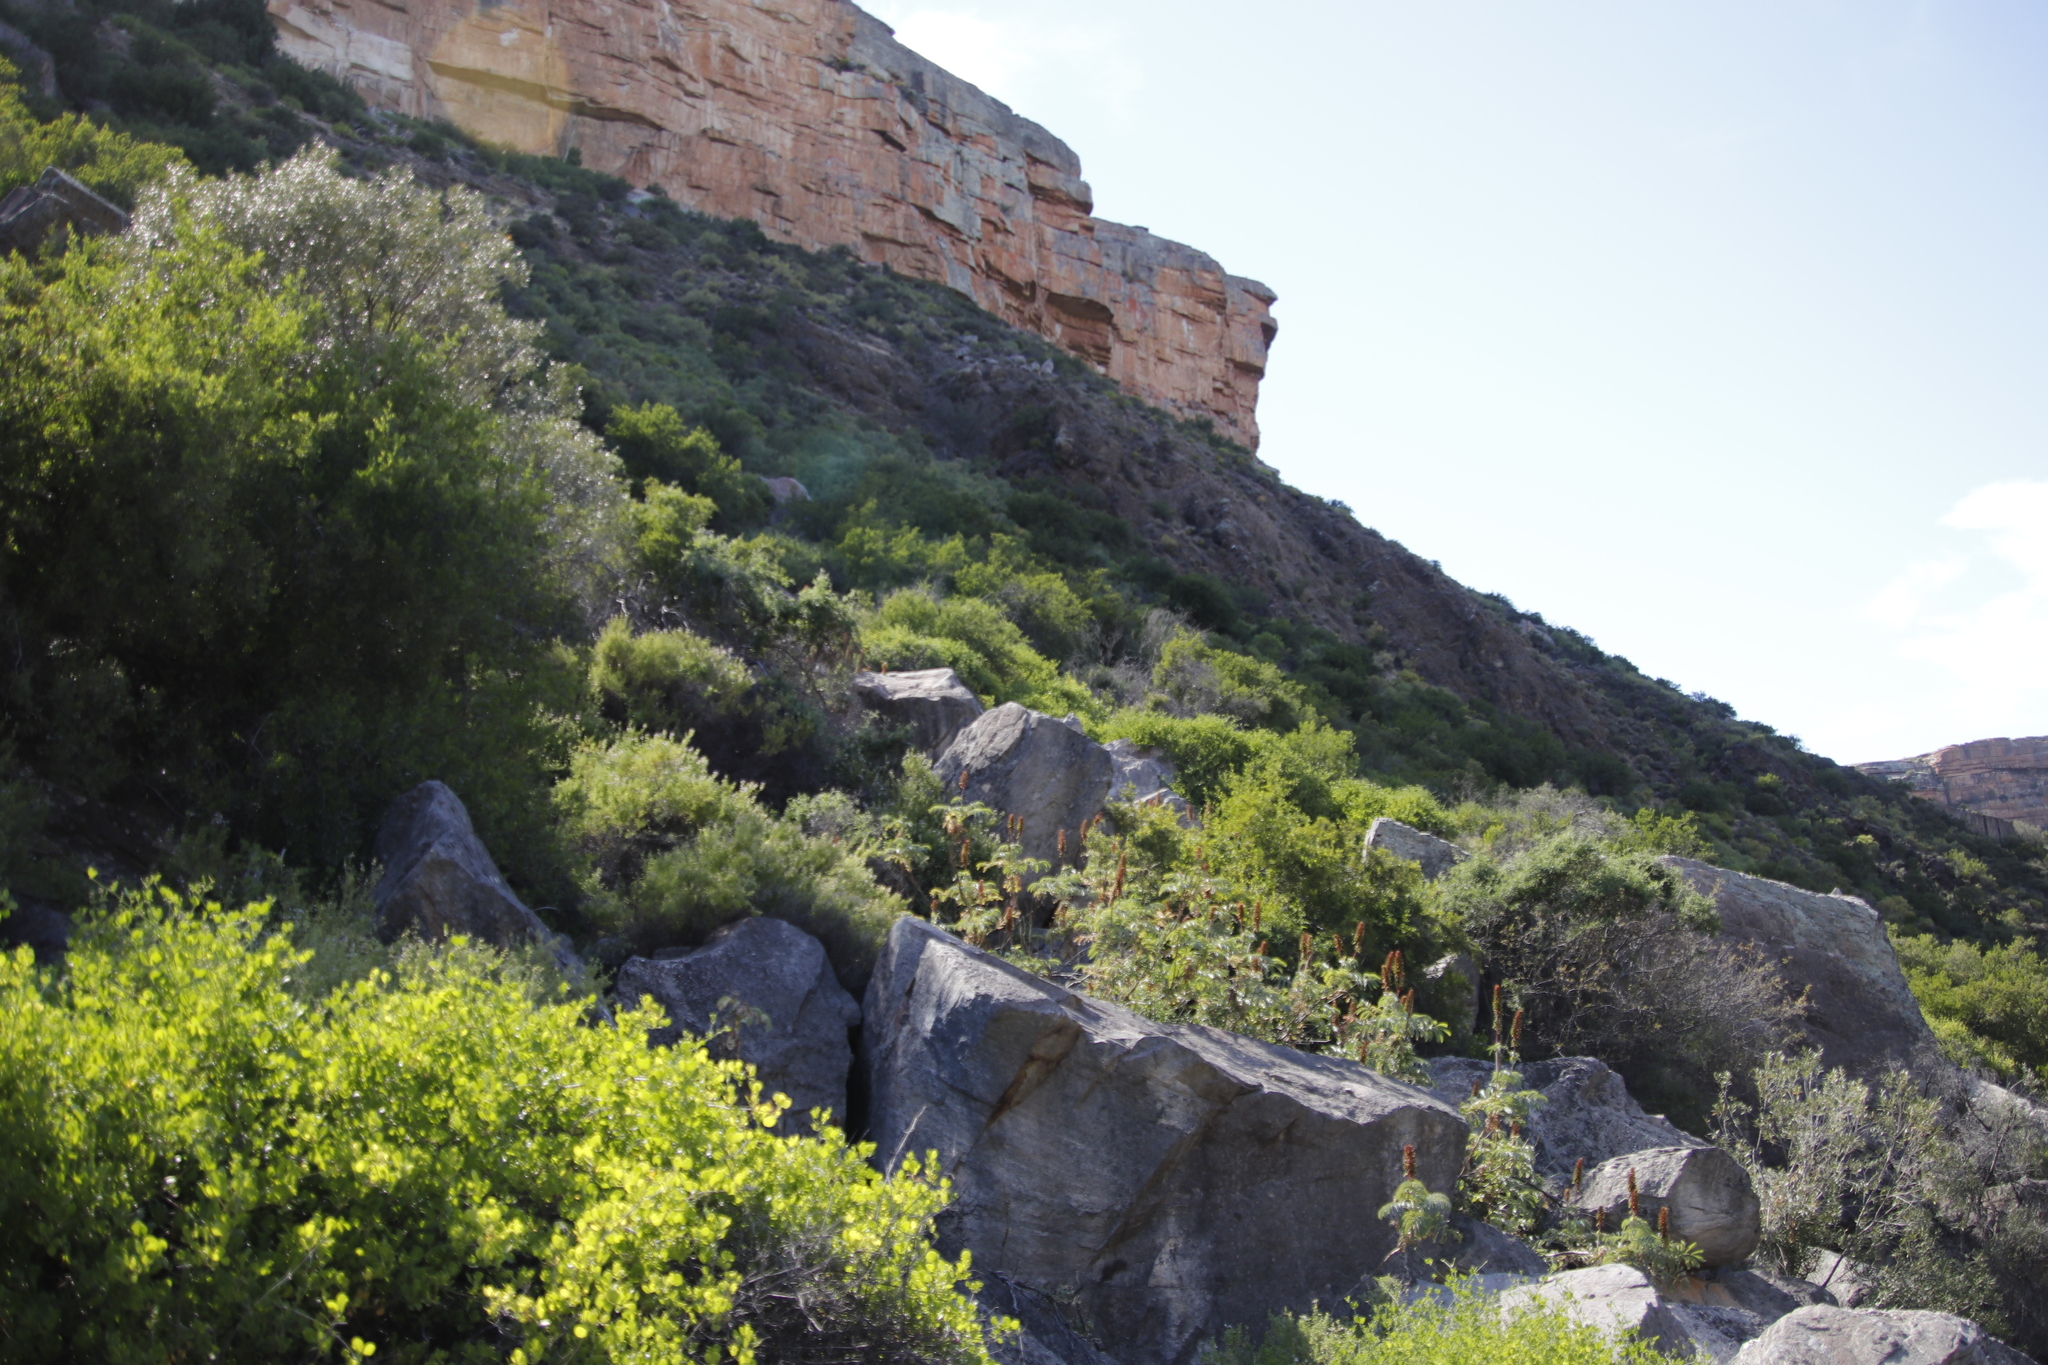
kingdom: Plantae
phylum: Tracheophyta
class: Magnoliopsida
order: Geraniales
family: Melianthaceae
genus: Melianthus
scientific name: Melianthus major
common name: Honey-flower
